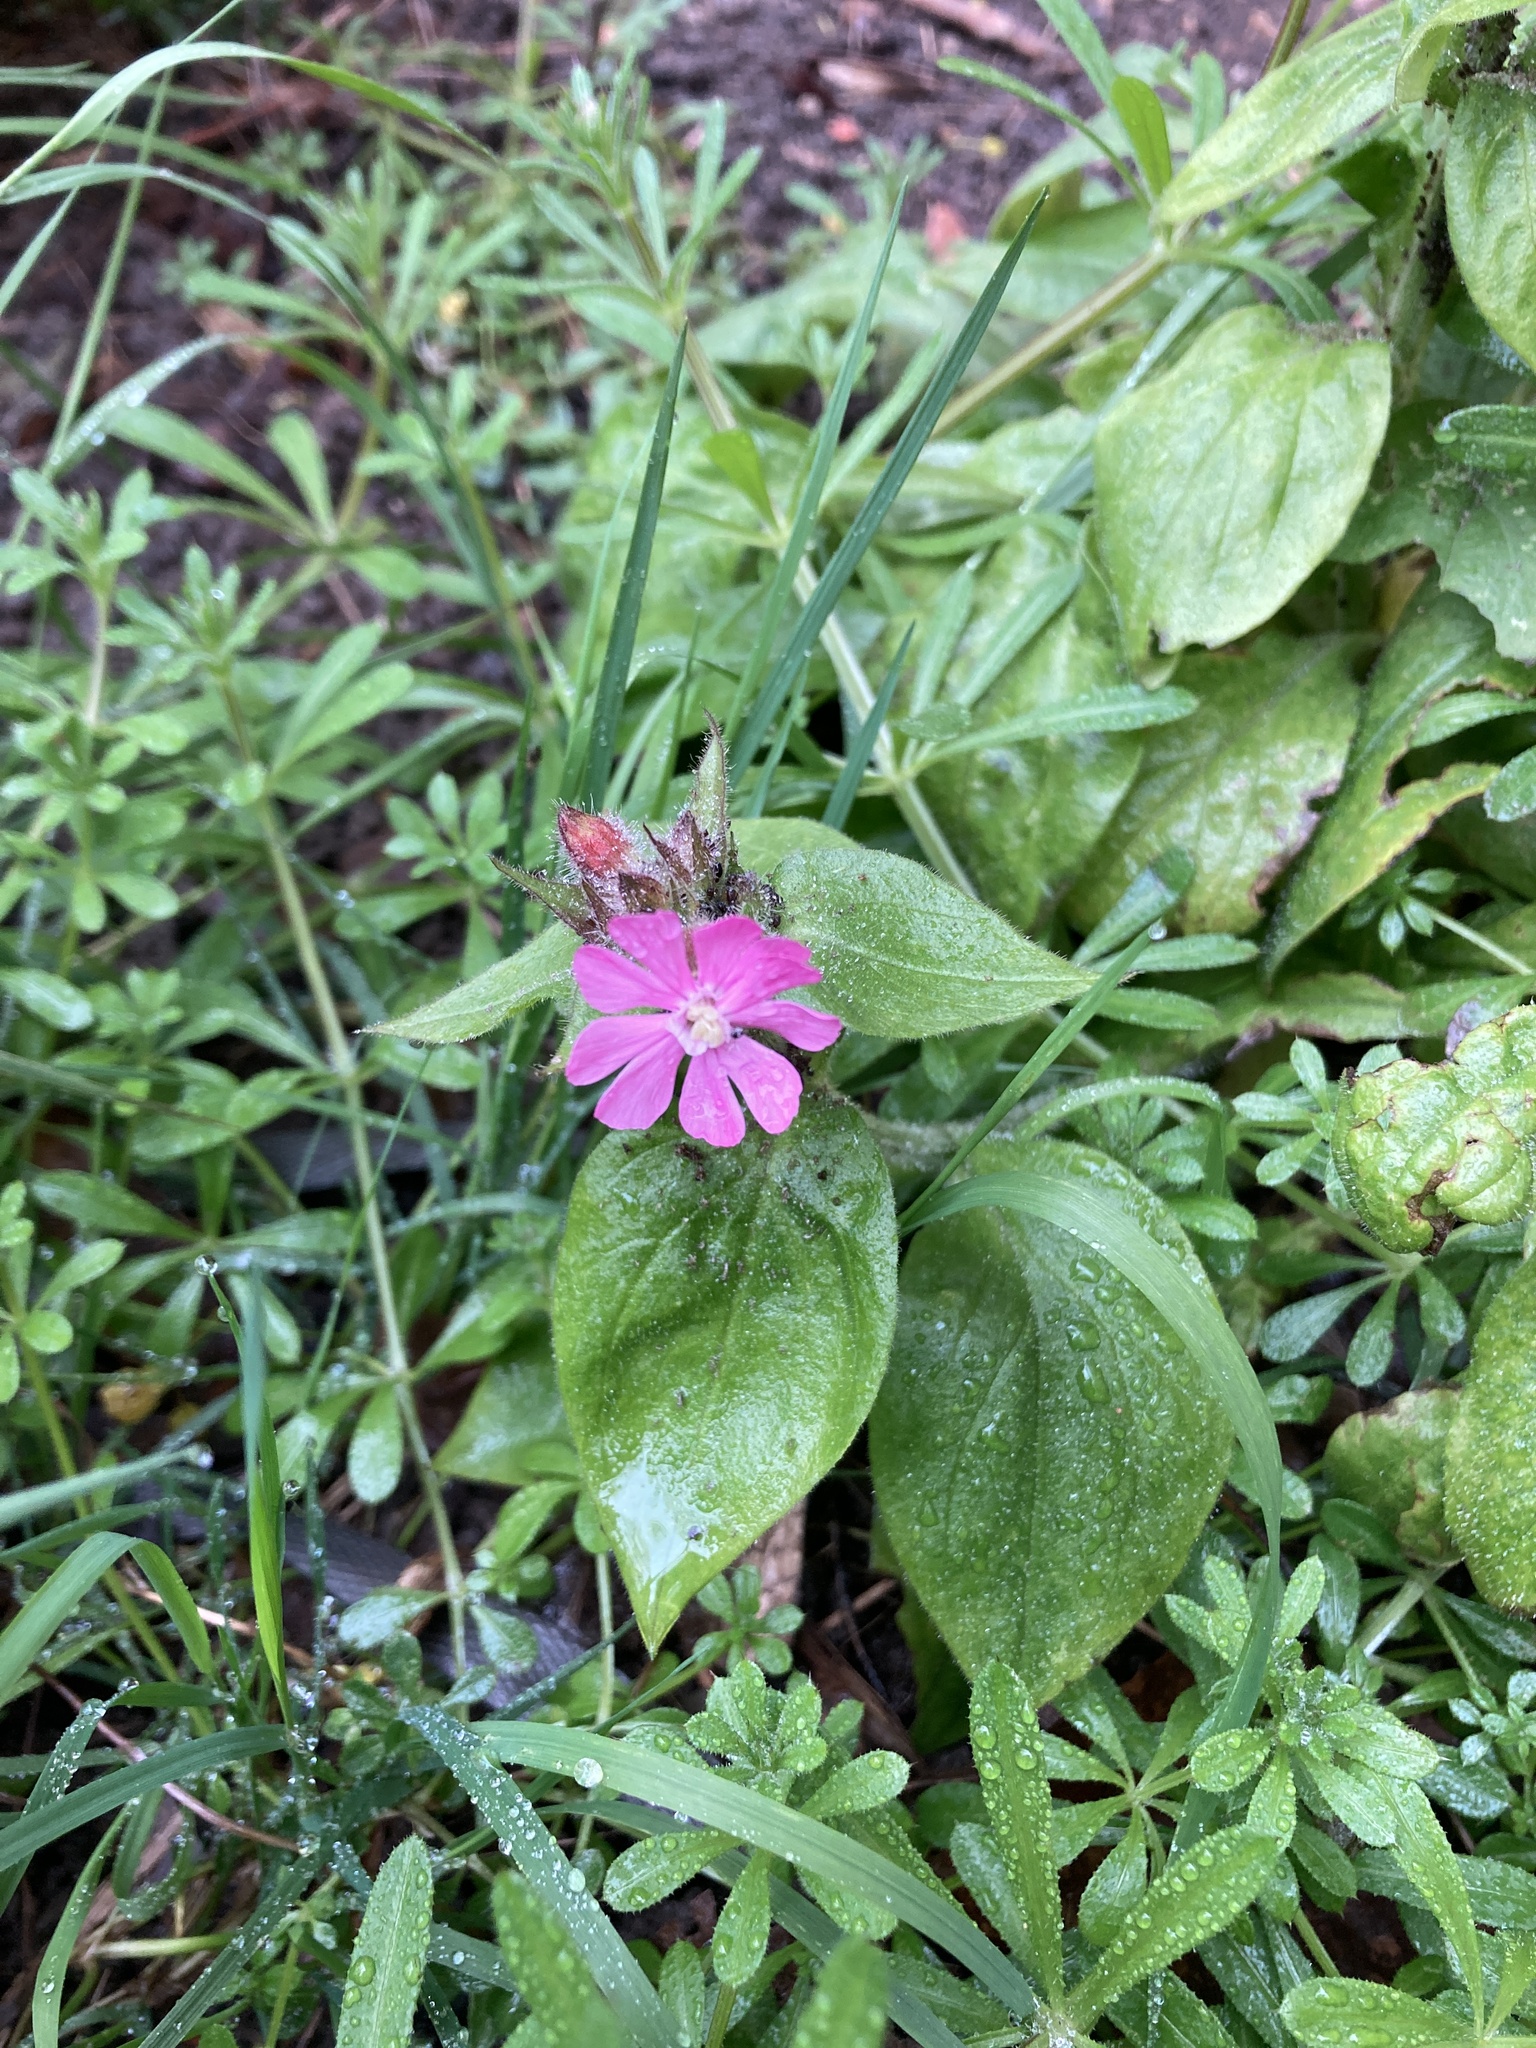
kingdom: Plantae
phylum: Tracheophyta
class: Magnoliopsida
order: Caryophyllales
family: Caryophyllaceae
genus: Silene
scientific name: Silene dioica
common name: Red campion
